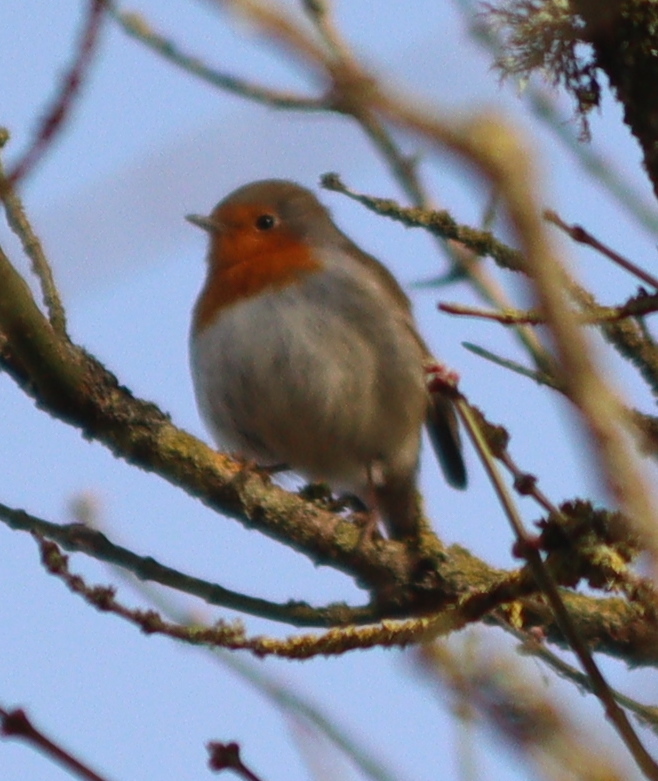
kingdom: Animalia
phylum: Chordata
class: Aves
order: Passeriformes
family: Muscicapidae
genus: Erithacus
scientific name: Erithacus rubecula
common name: European robin
